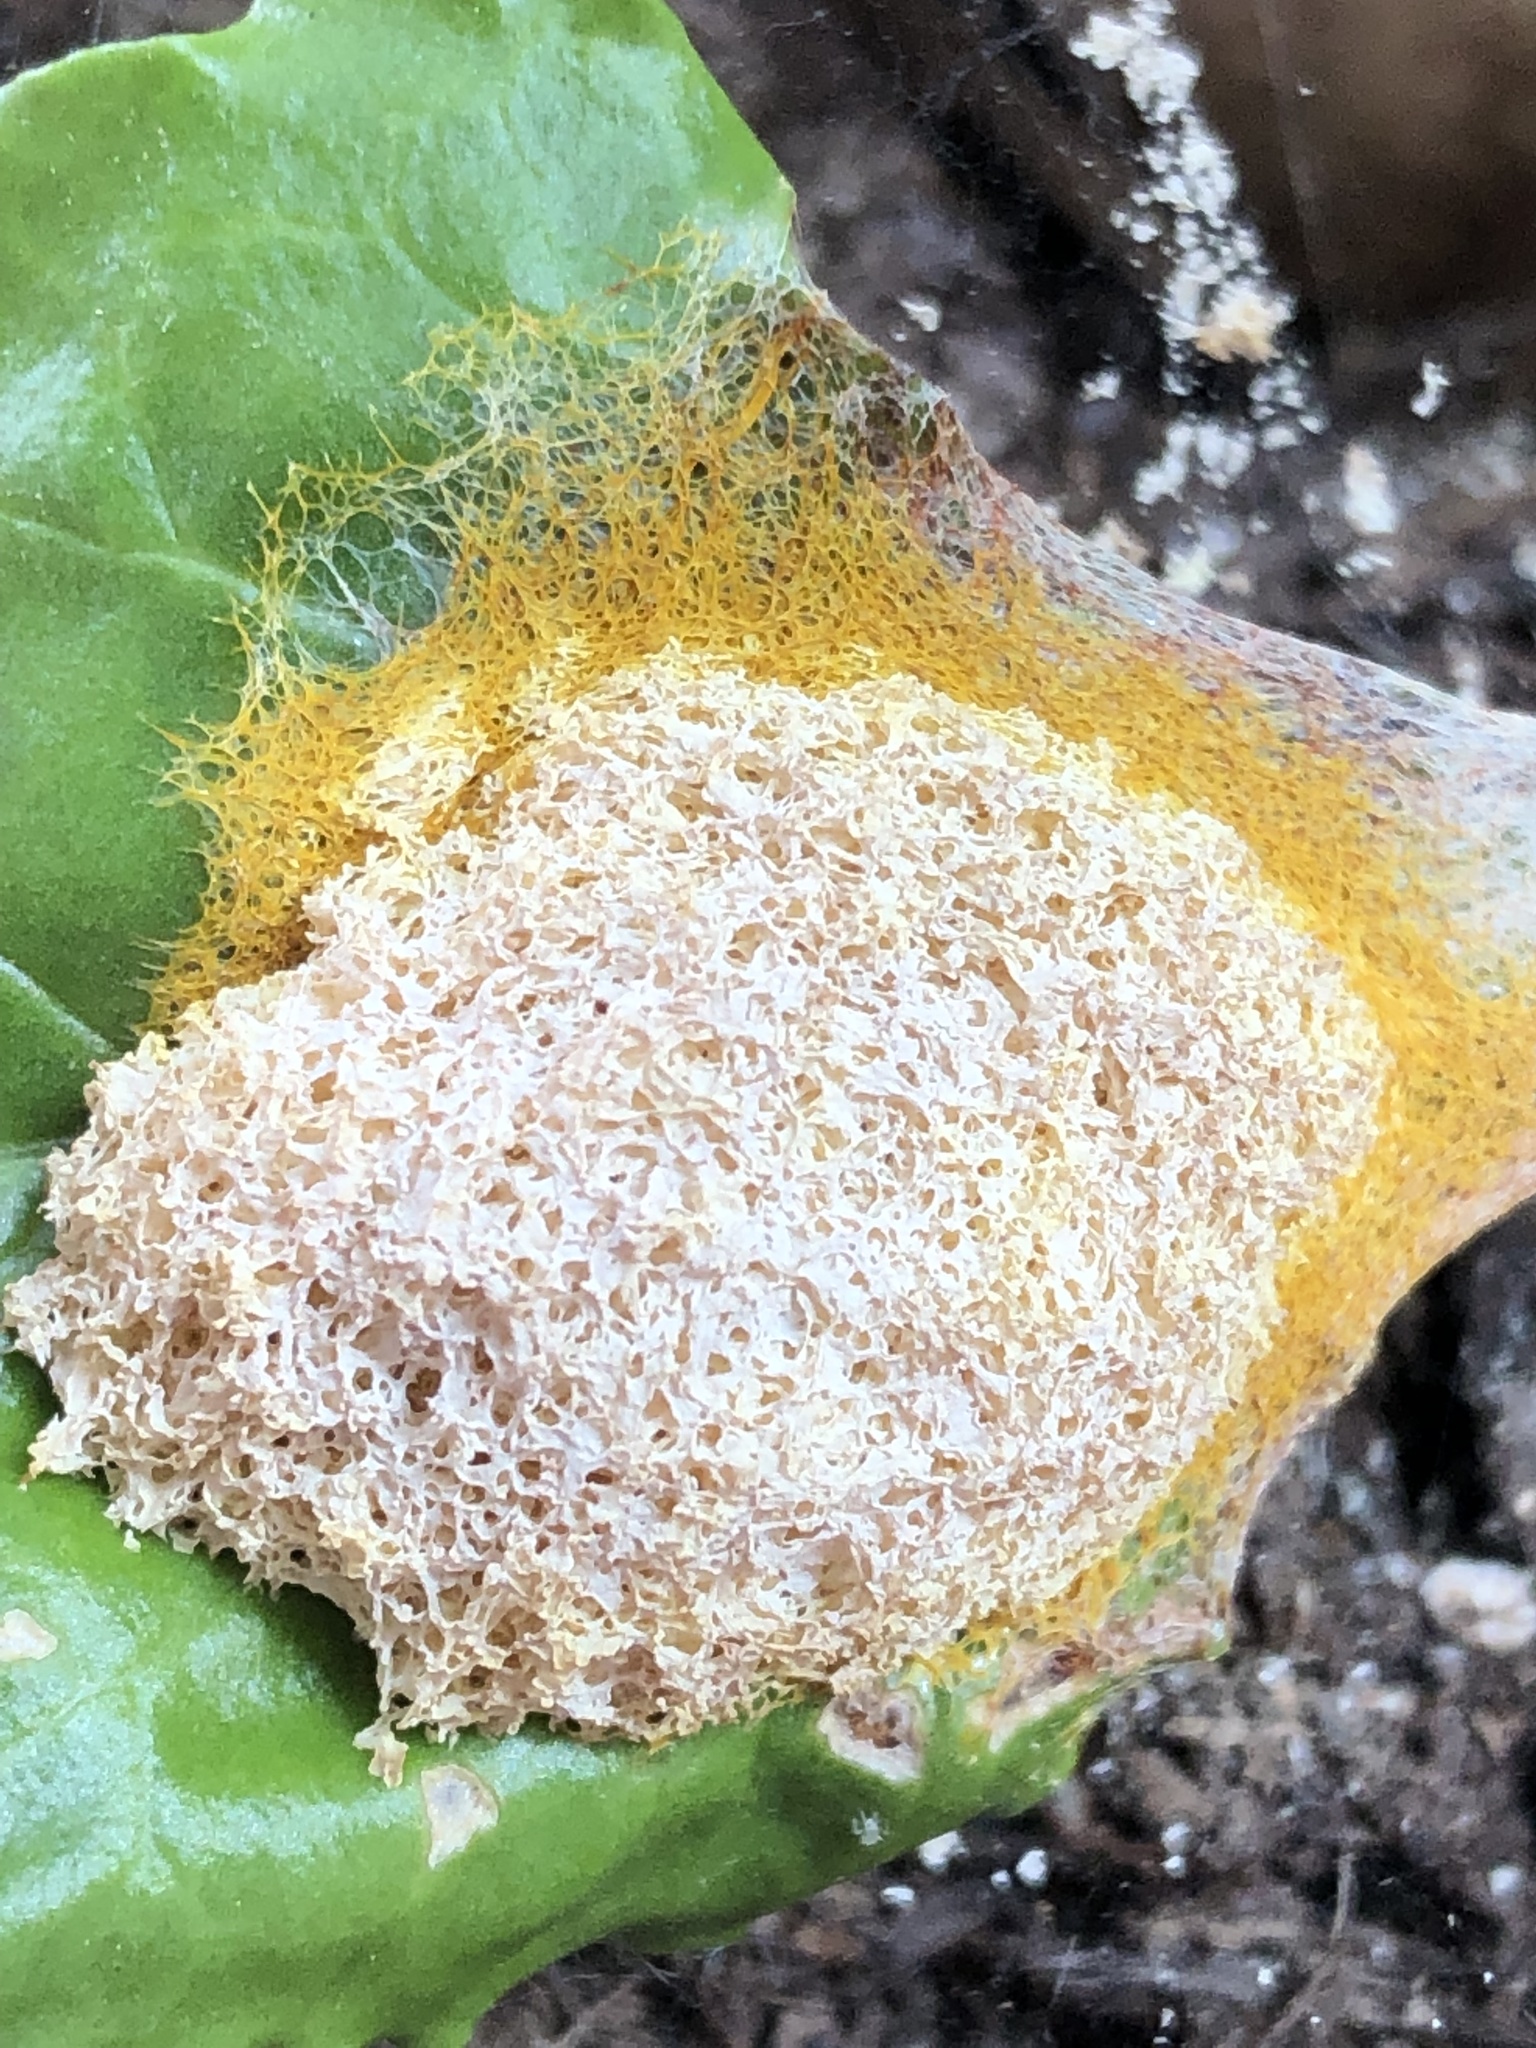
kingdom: Protozoa
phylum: Mycetozoa
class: Myxomycetes
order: Physarales
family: Physaraceae
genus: Fuligo
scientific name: Fuligo septica
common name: Dog vomit slime mold
